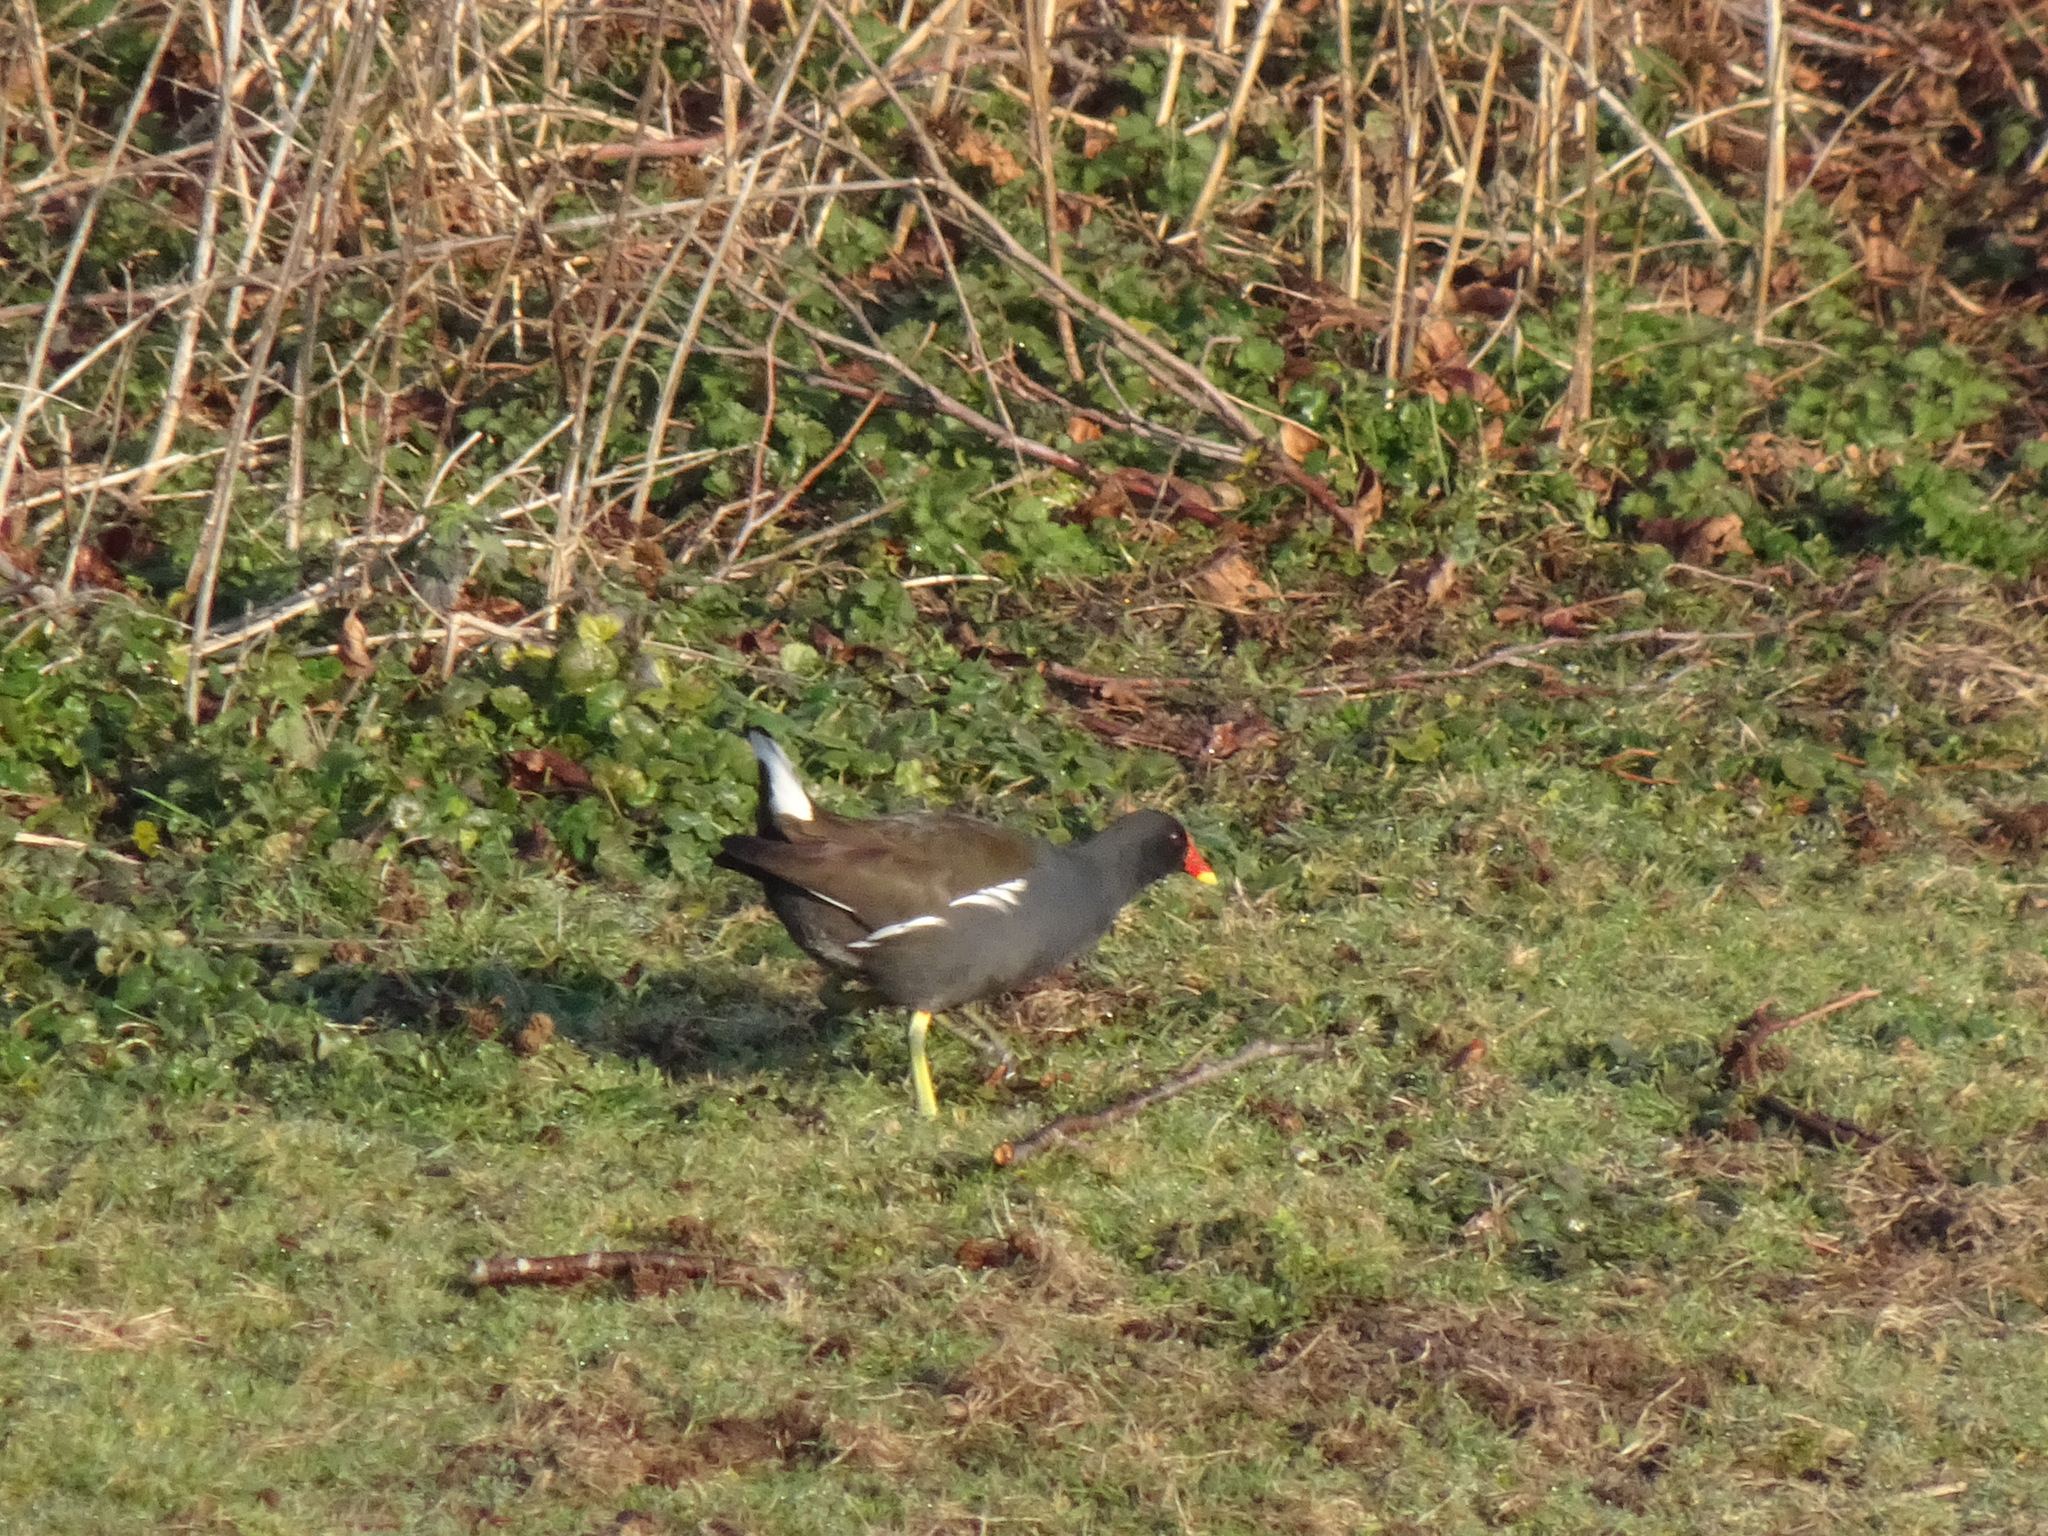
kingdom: Animalia
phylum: Chordata
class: Aves
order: Gruiformes
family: Rallidae
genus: Gallinula
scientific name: Gallinula chloropus
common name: Common moorhen
